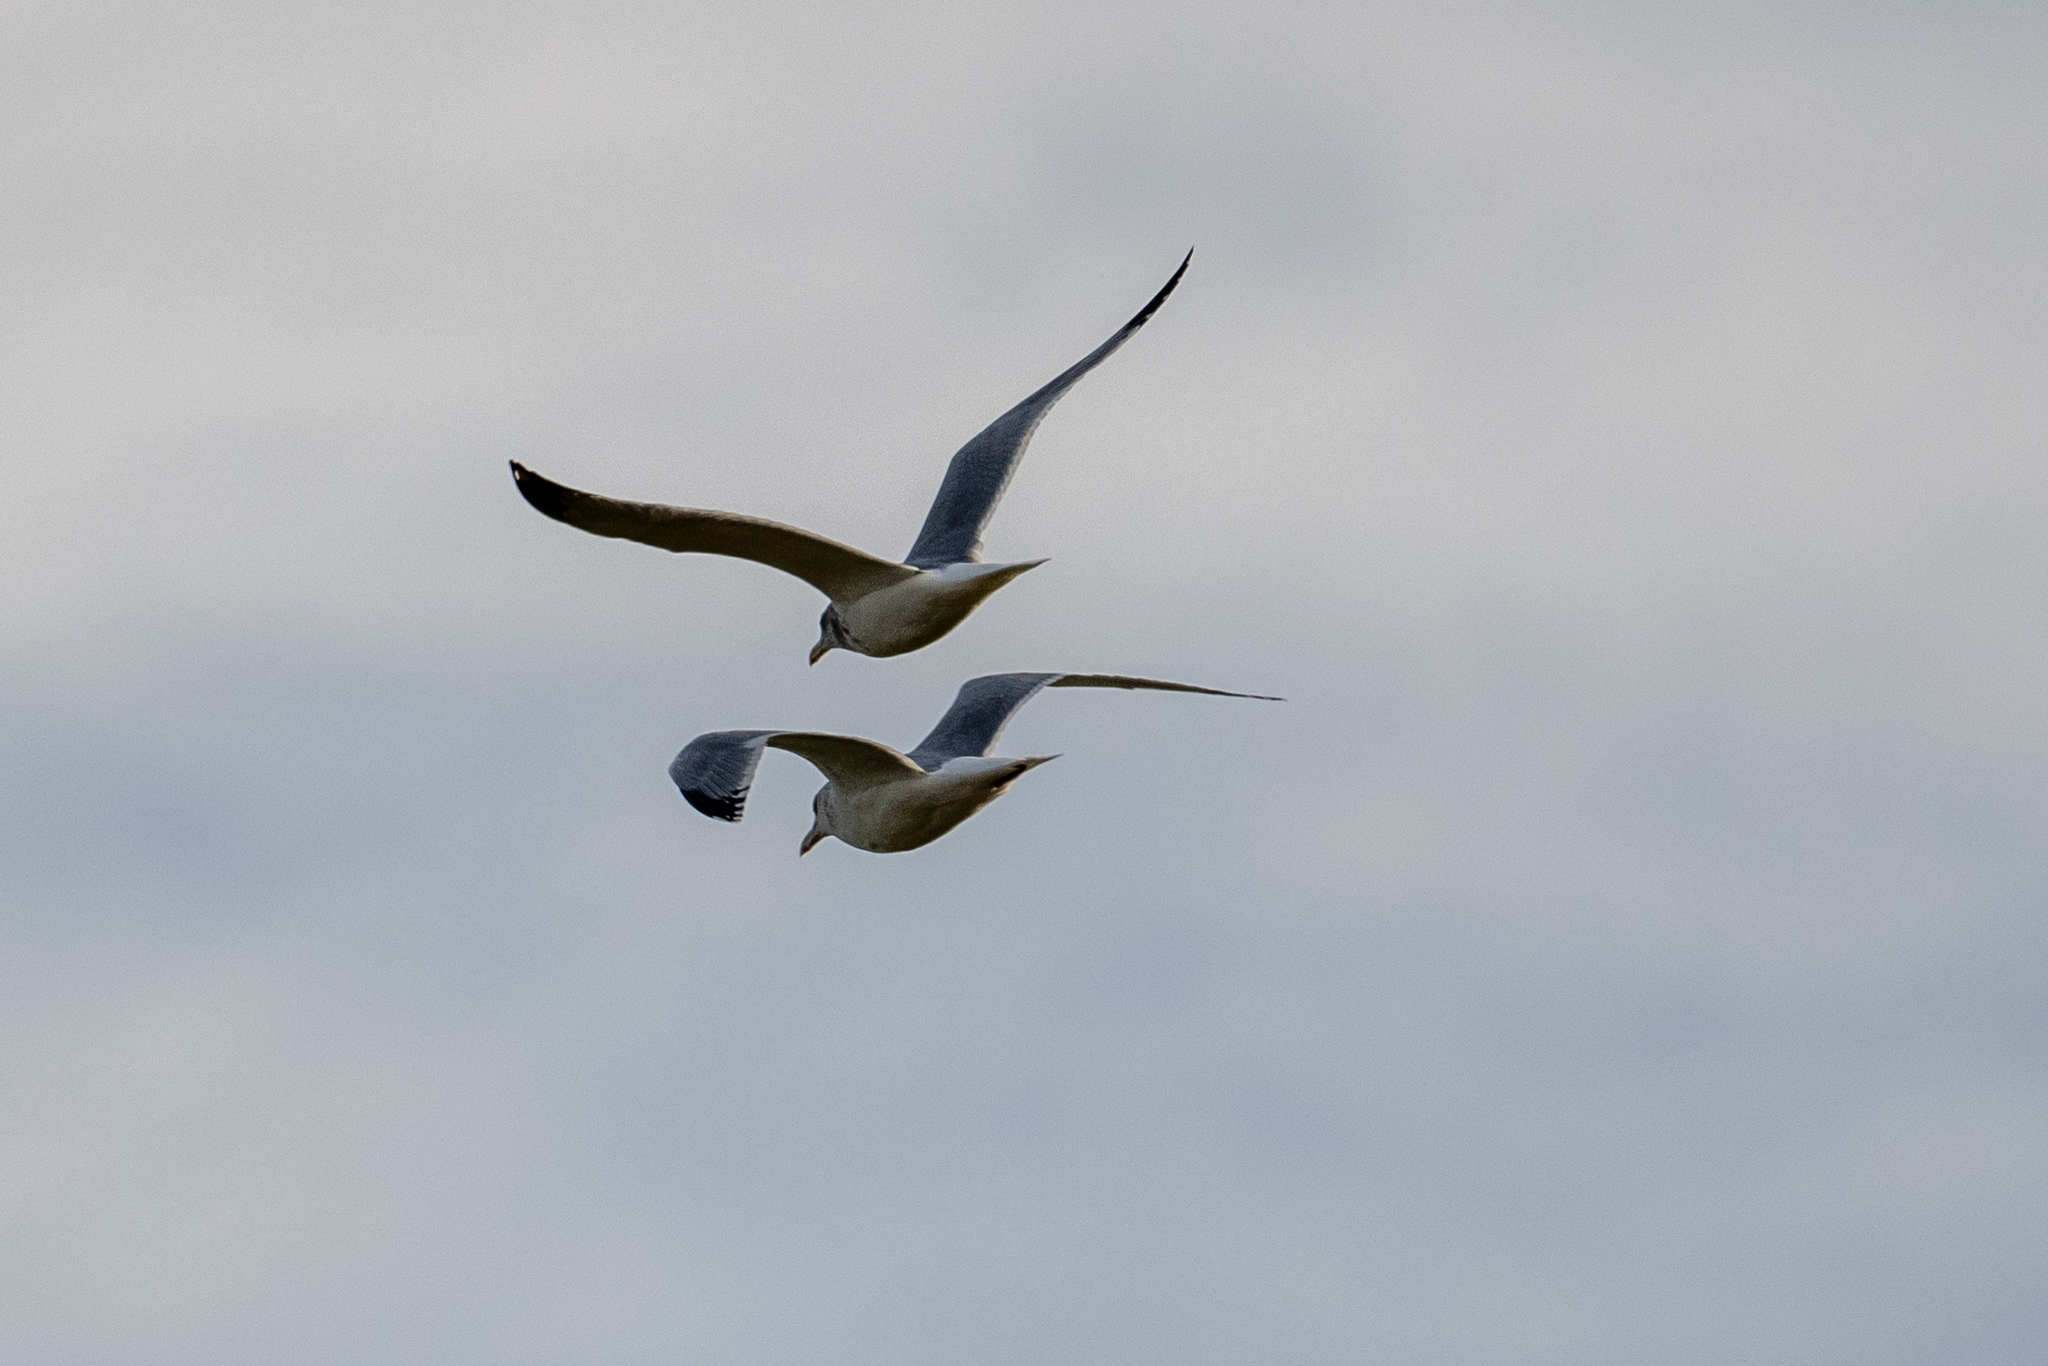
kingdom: Animalia
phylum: Chordata
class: Aves
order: Charadriiformes
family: Laridae
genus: Larus
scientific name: Larus argentatus
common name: Herring gull
